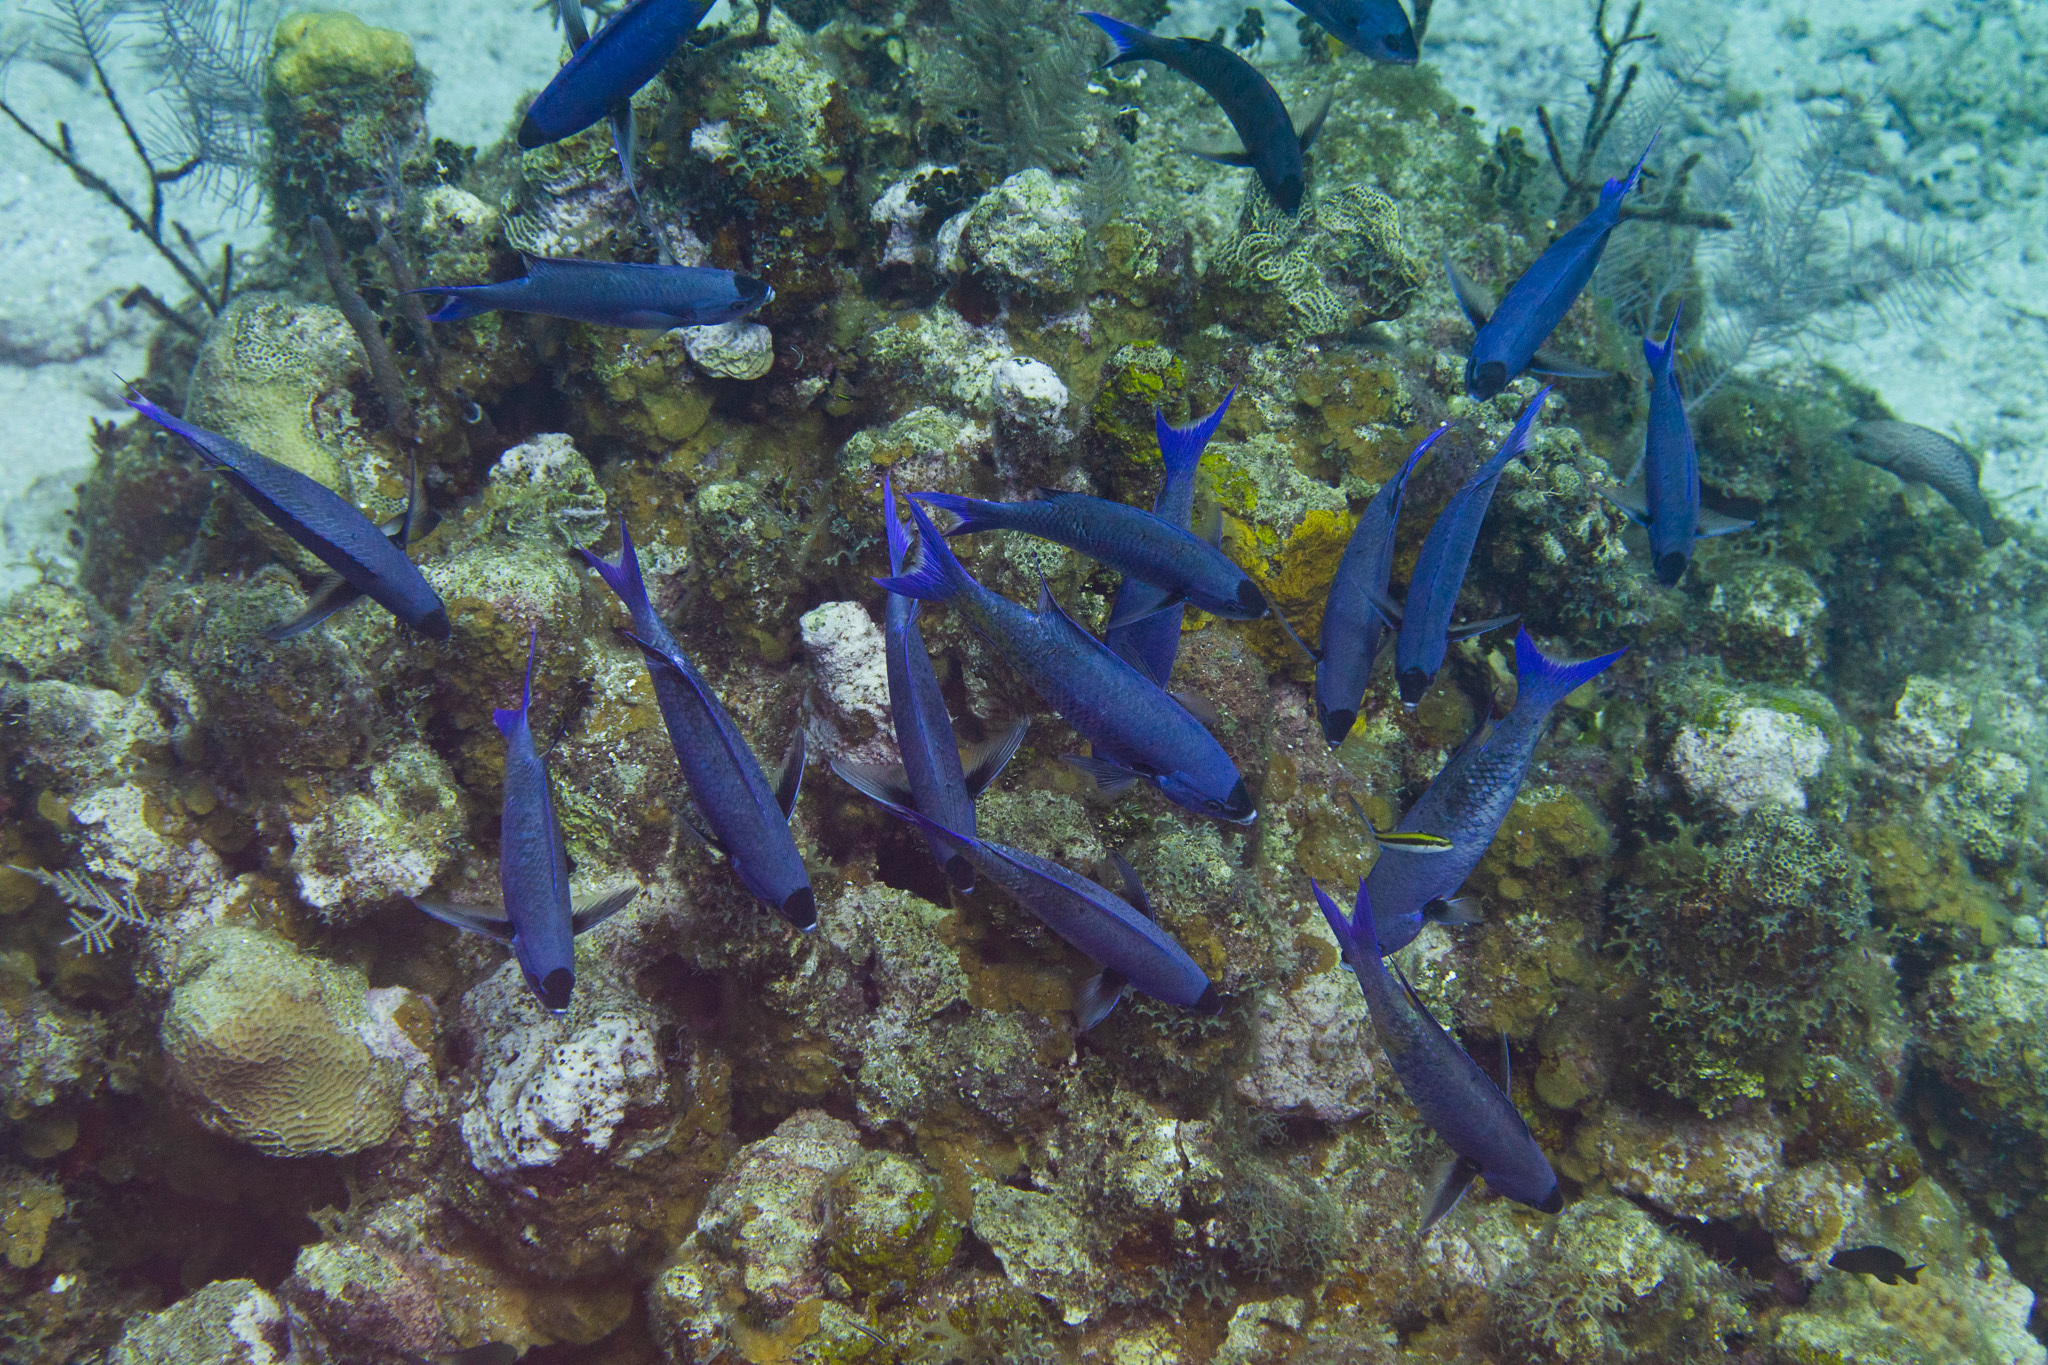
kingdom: Animalia
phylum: Chordata
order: Perciformes
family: Labridae
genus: Bodianus
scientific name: Bodianus
